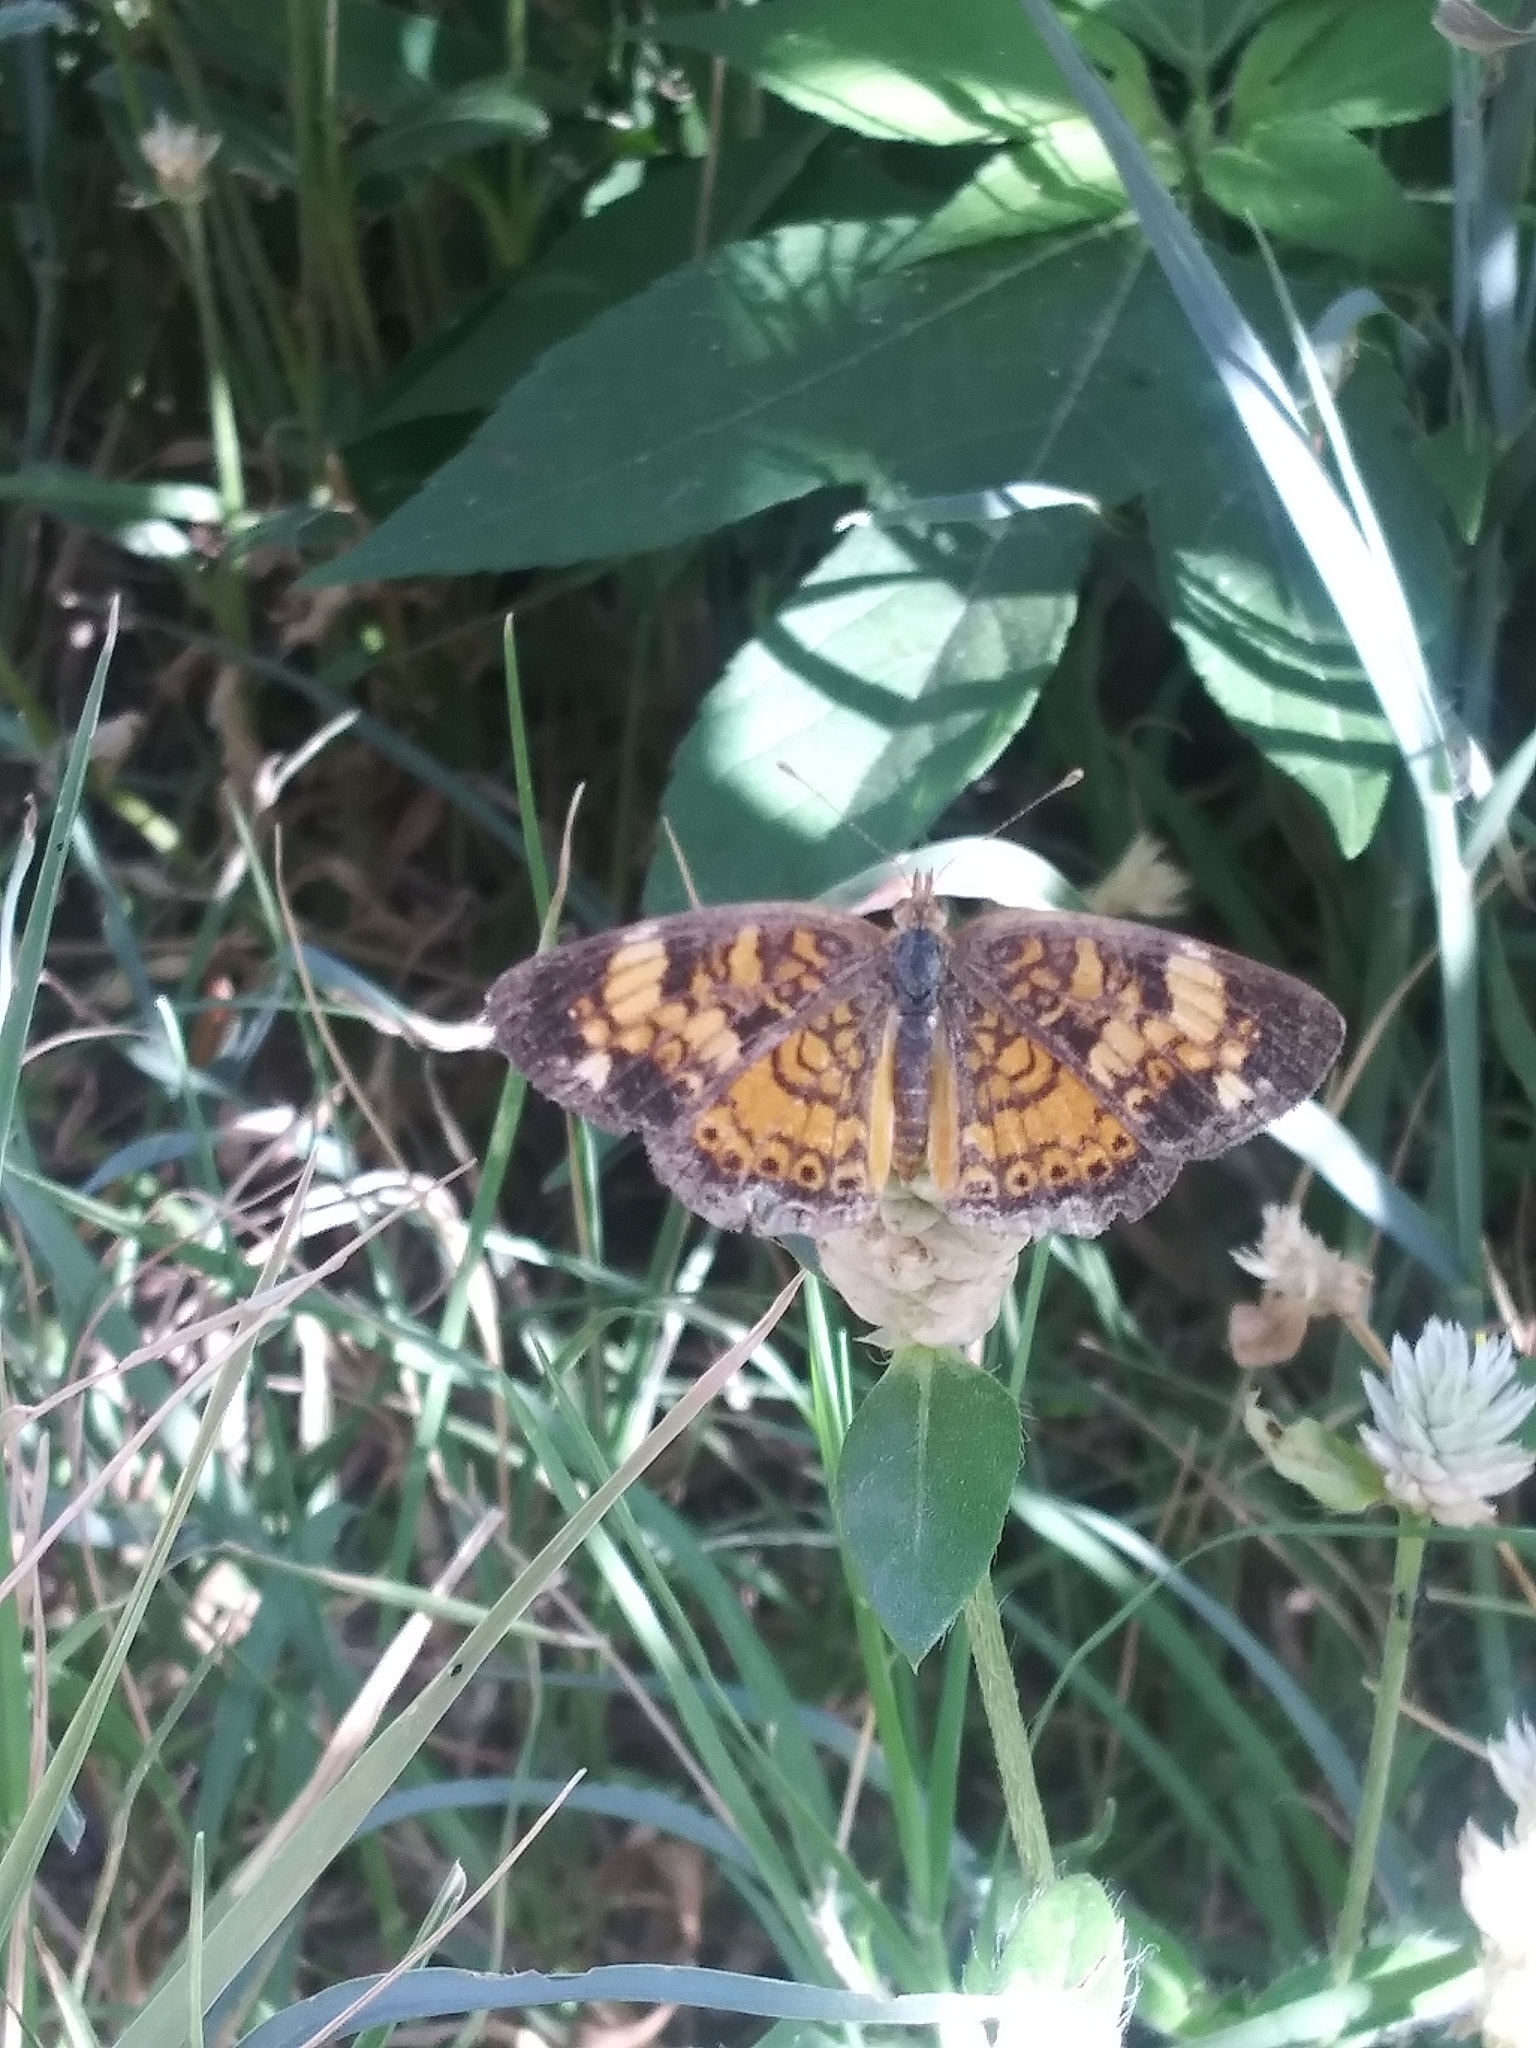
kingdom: Animalia
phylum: Arthropoda
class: Insecta
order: Lepidoptera
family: Nymphalidae
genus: Phyciodes
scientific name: Phyciodes tharos
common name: Pearl crescent
